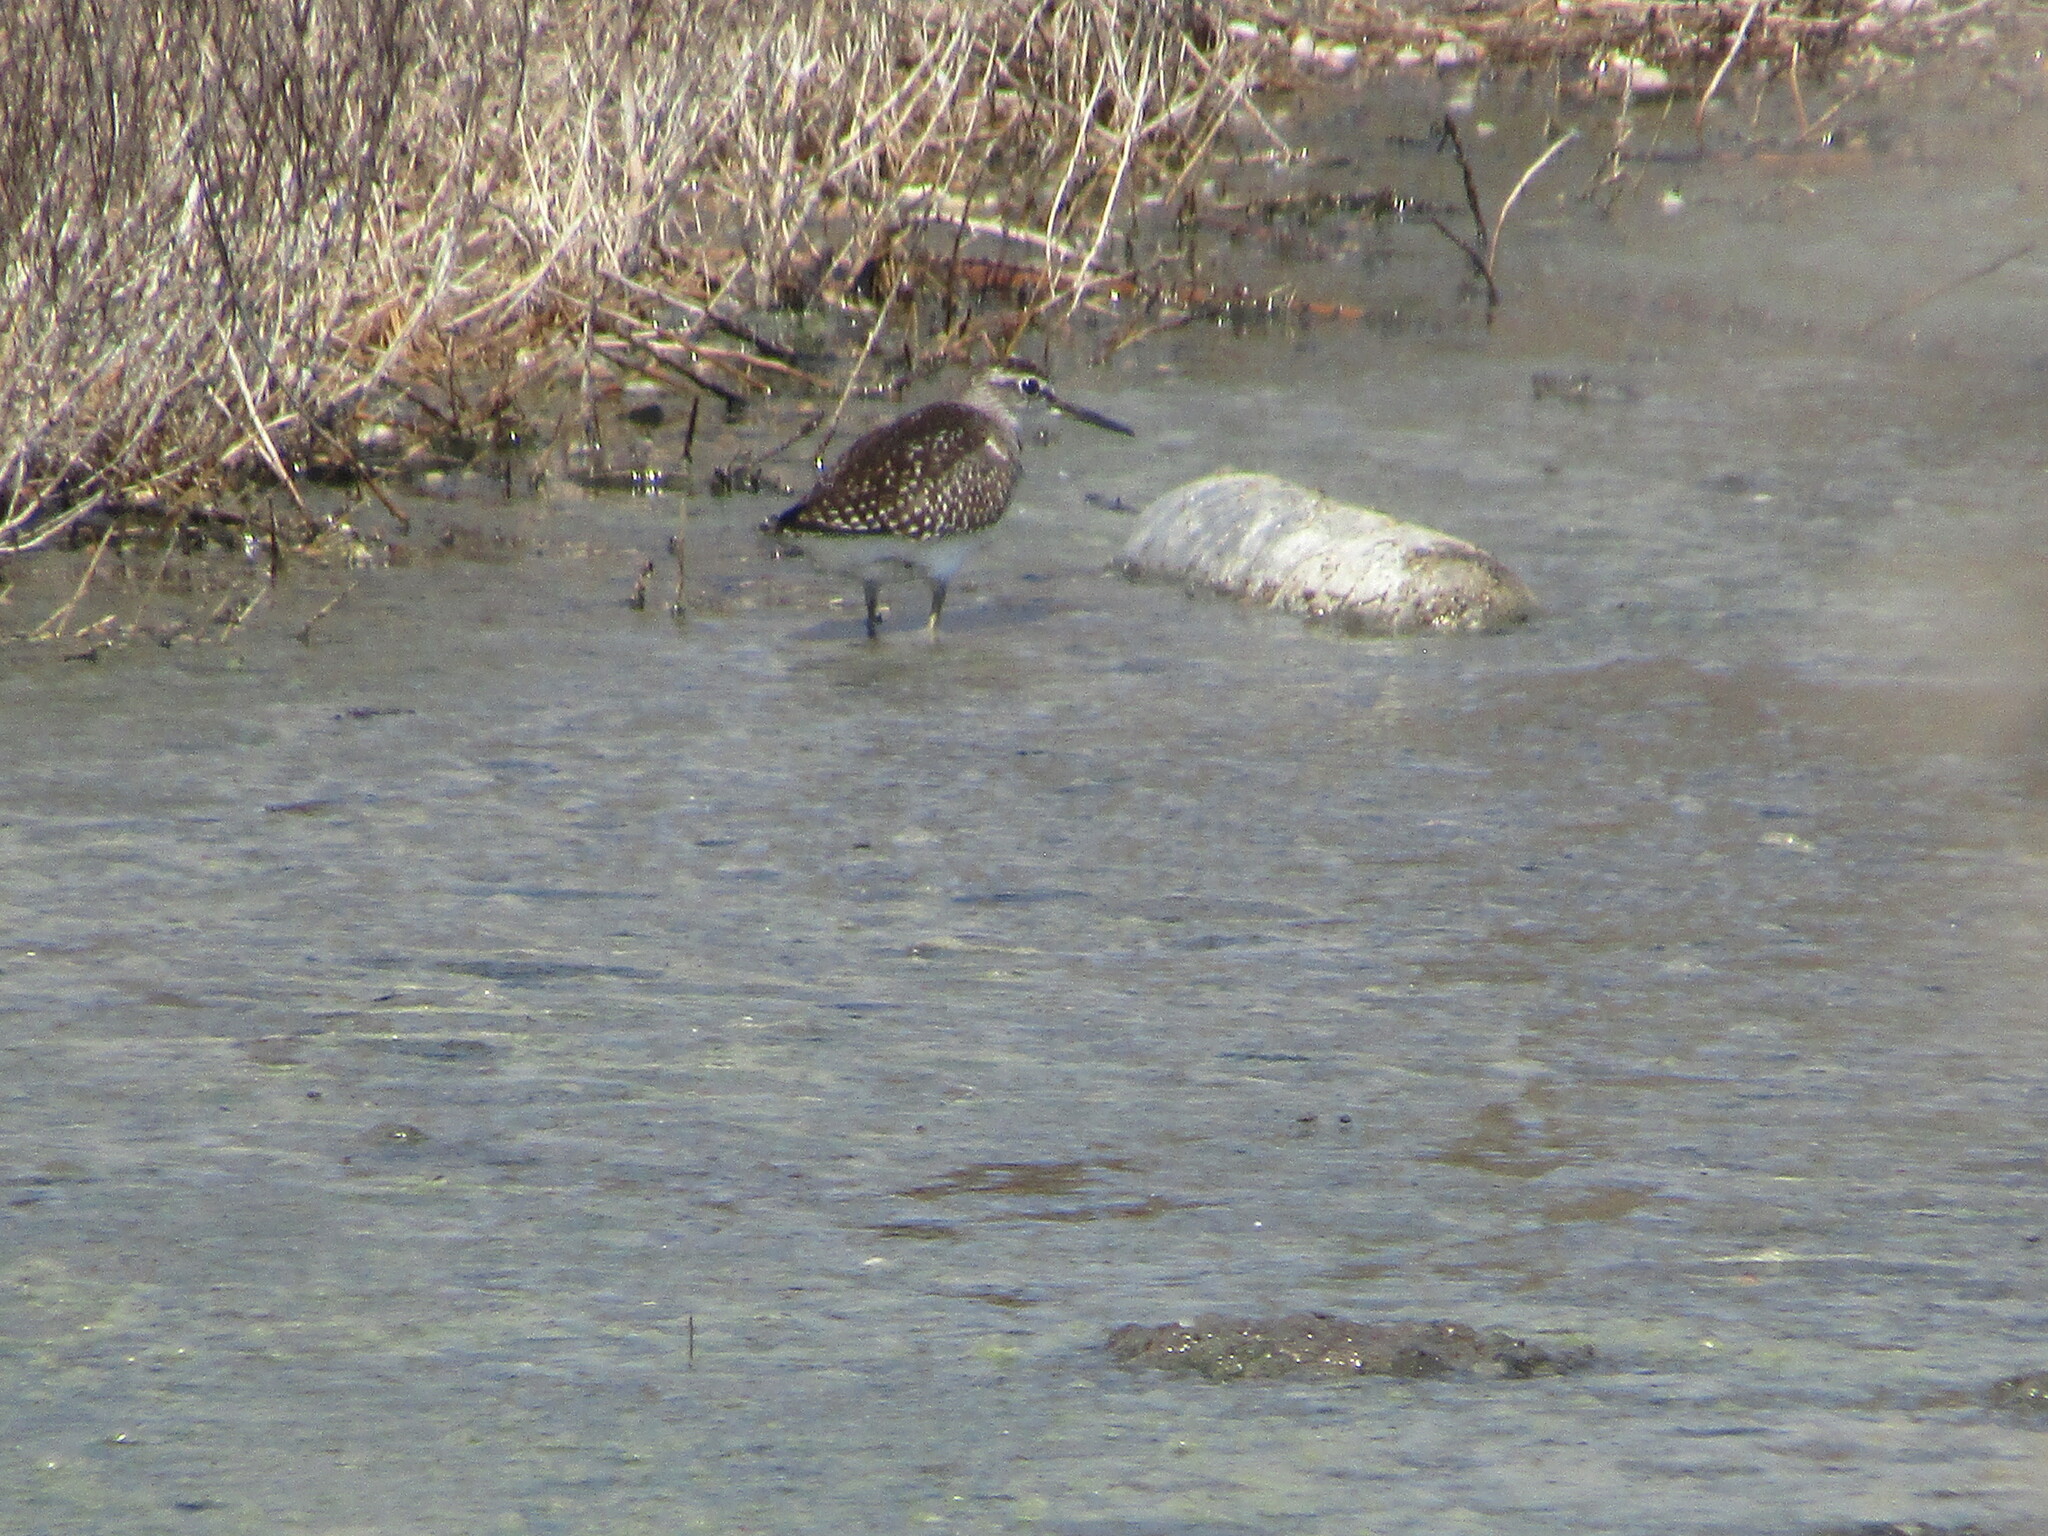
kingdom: Animalia
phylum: Chordata
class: Aves
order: Charadriiformes
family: Scolopacidae
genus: Tringa
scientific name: Tringa glareola
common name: Wood sandpiper
